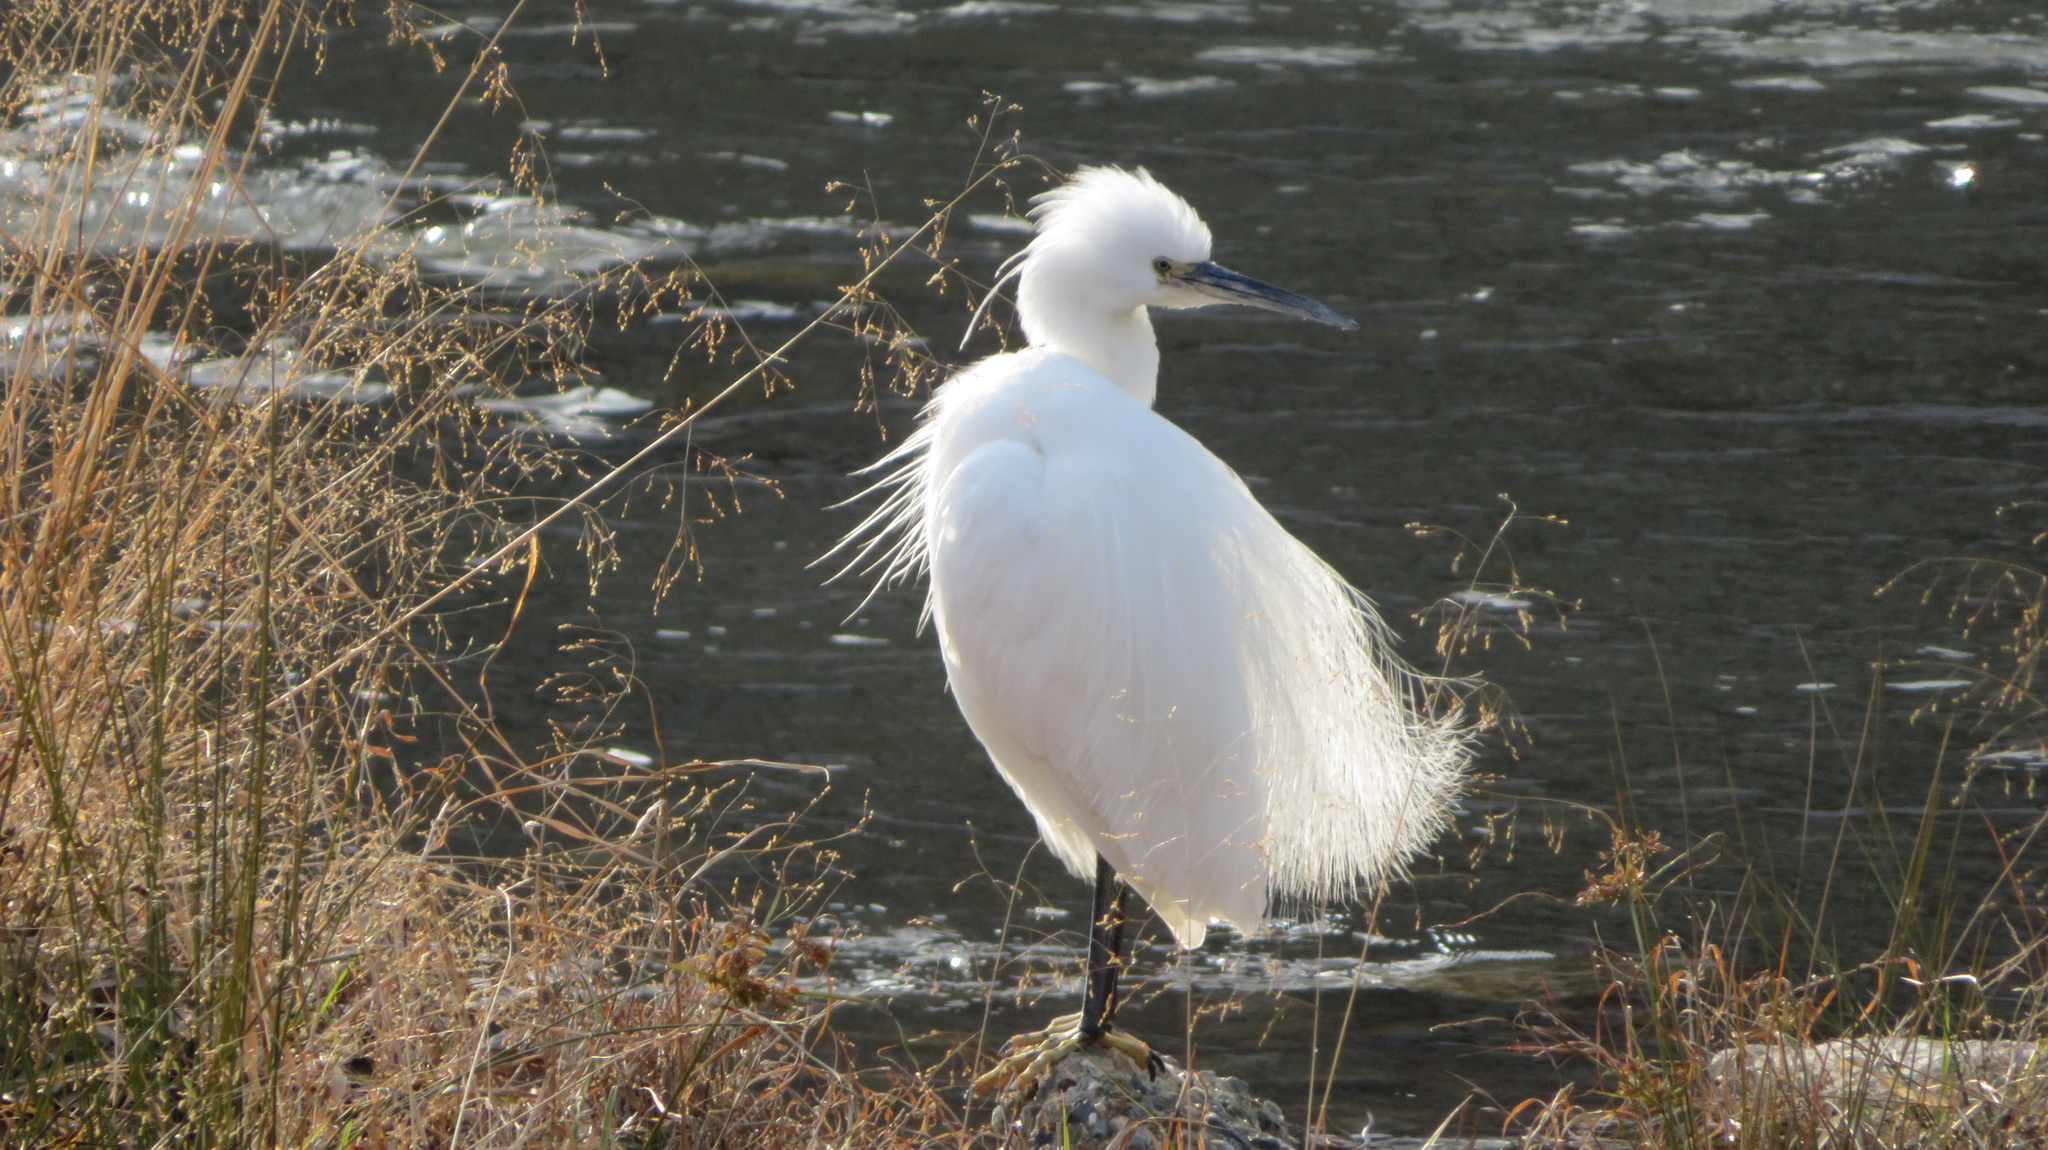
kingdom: Animalia
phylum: Chordata
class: Aves
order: Pelecaniformes
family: Ardeidae
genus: Egretta
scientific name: Egretta garzetta
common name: Little egret
